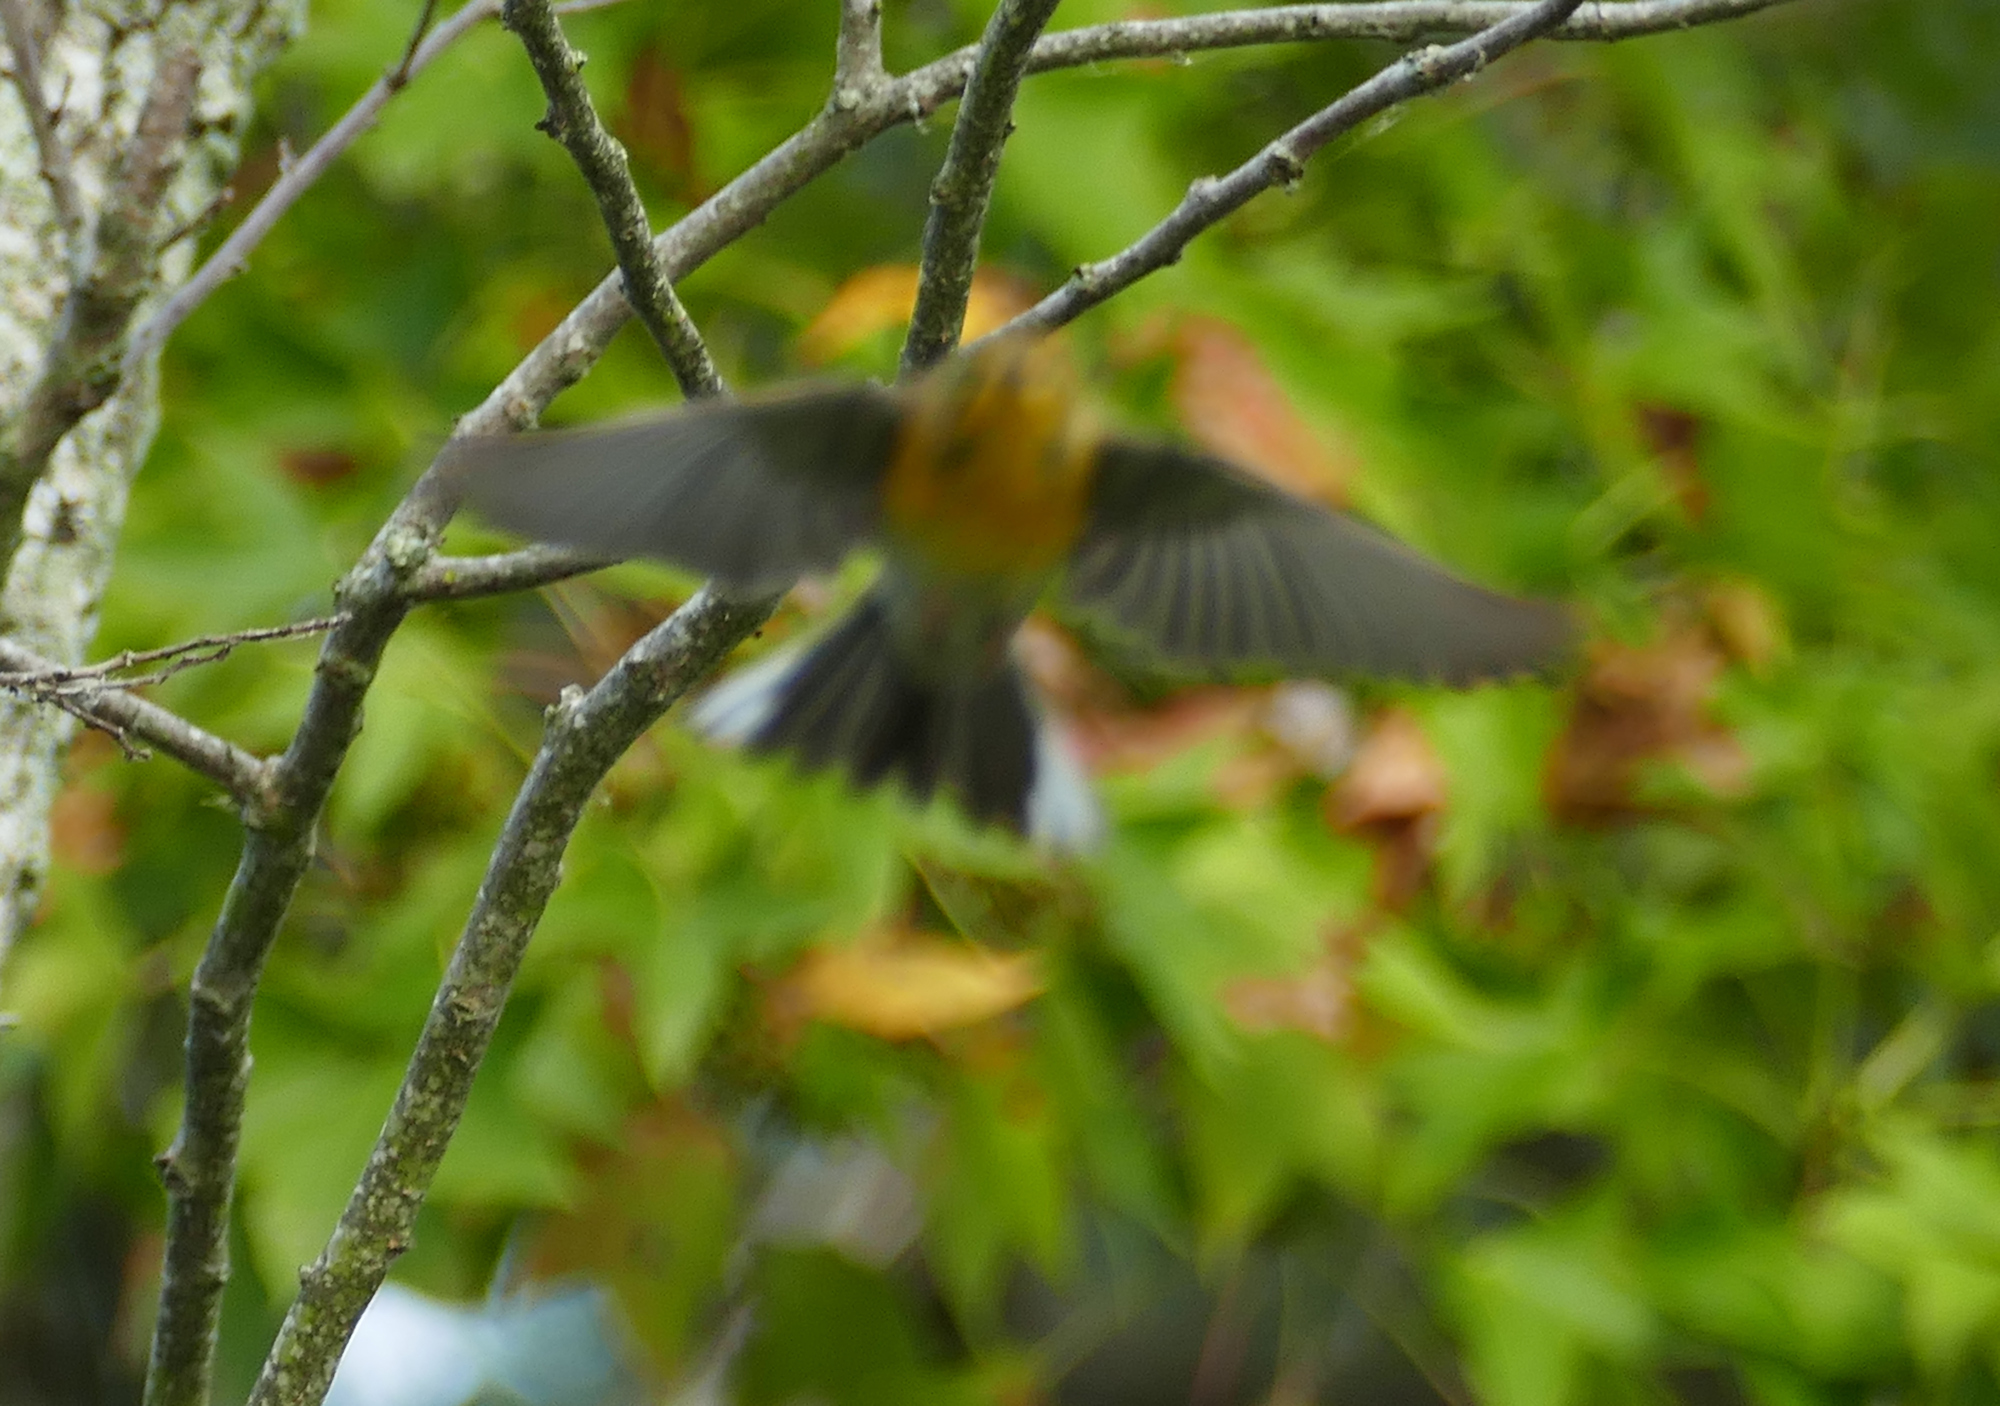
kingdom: Animalia
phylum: Chordata
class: Aves
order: Passeriformes
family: Parulidae
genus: Setophaga
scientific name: Setophaga pinus
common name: Pine warbler
